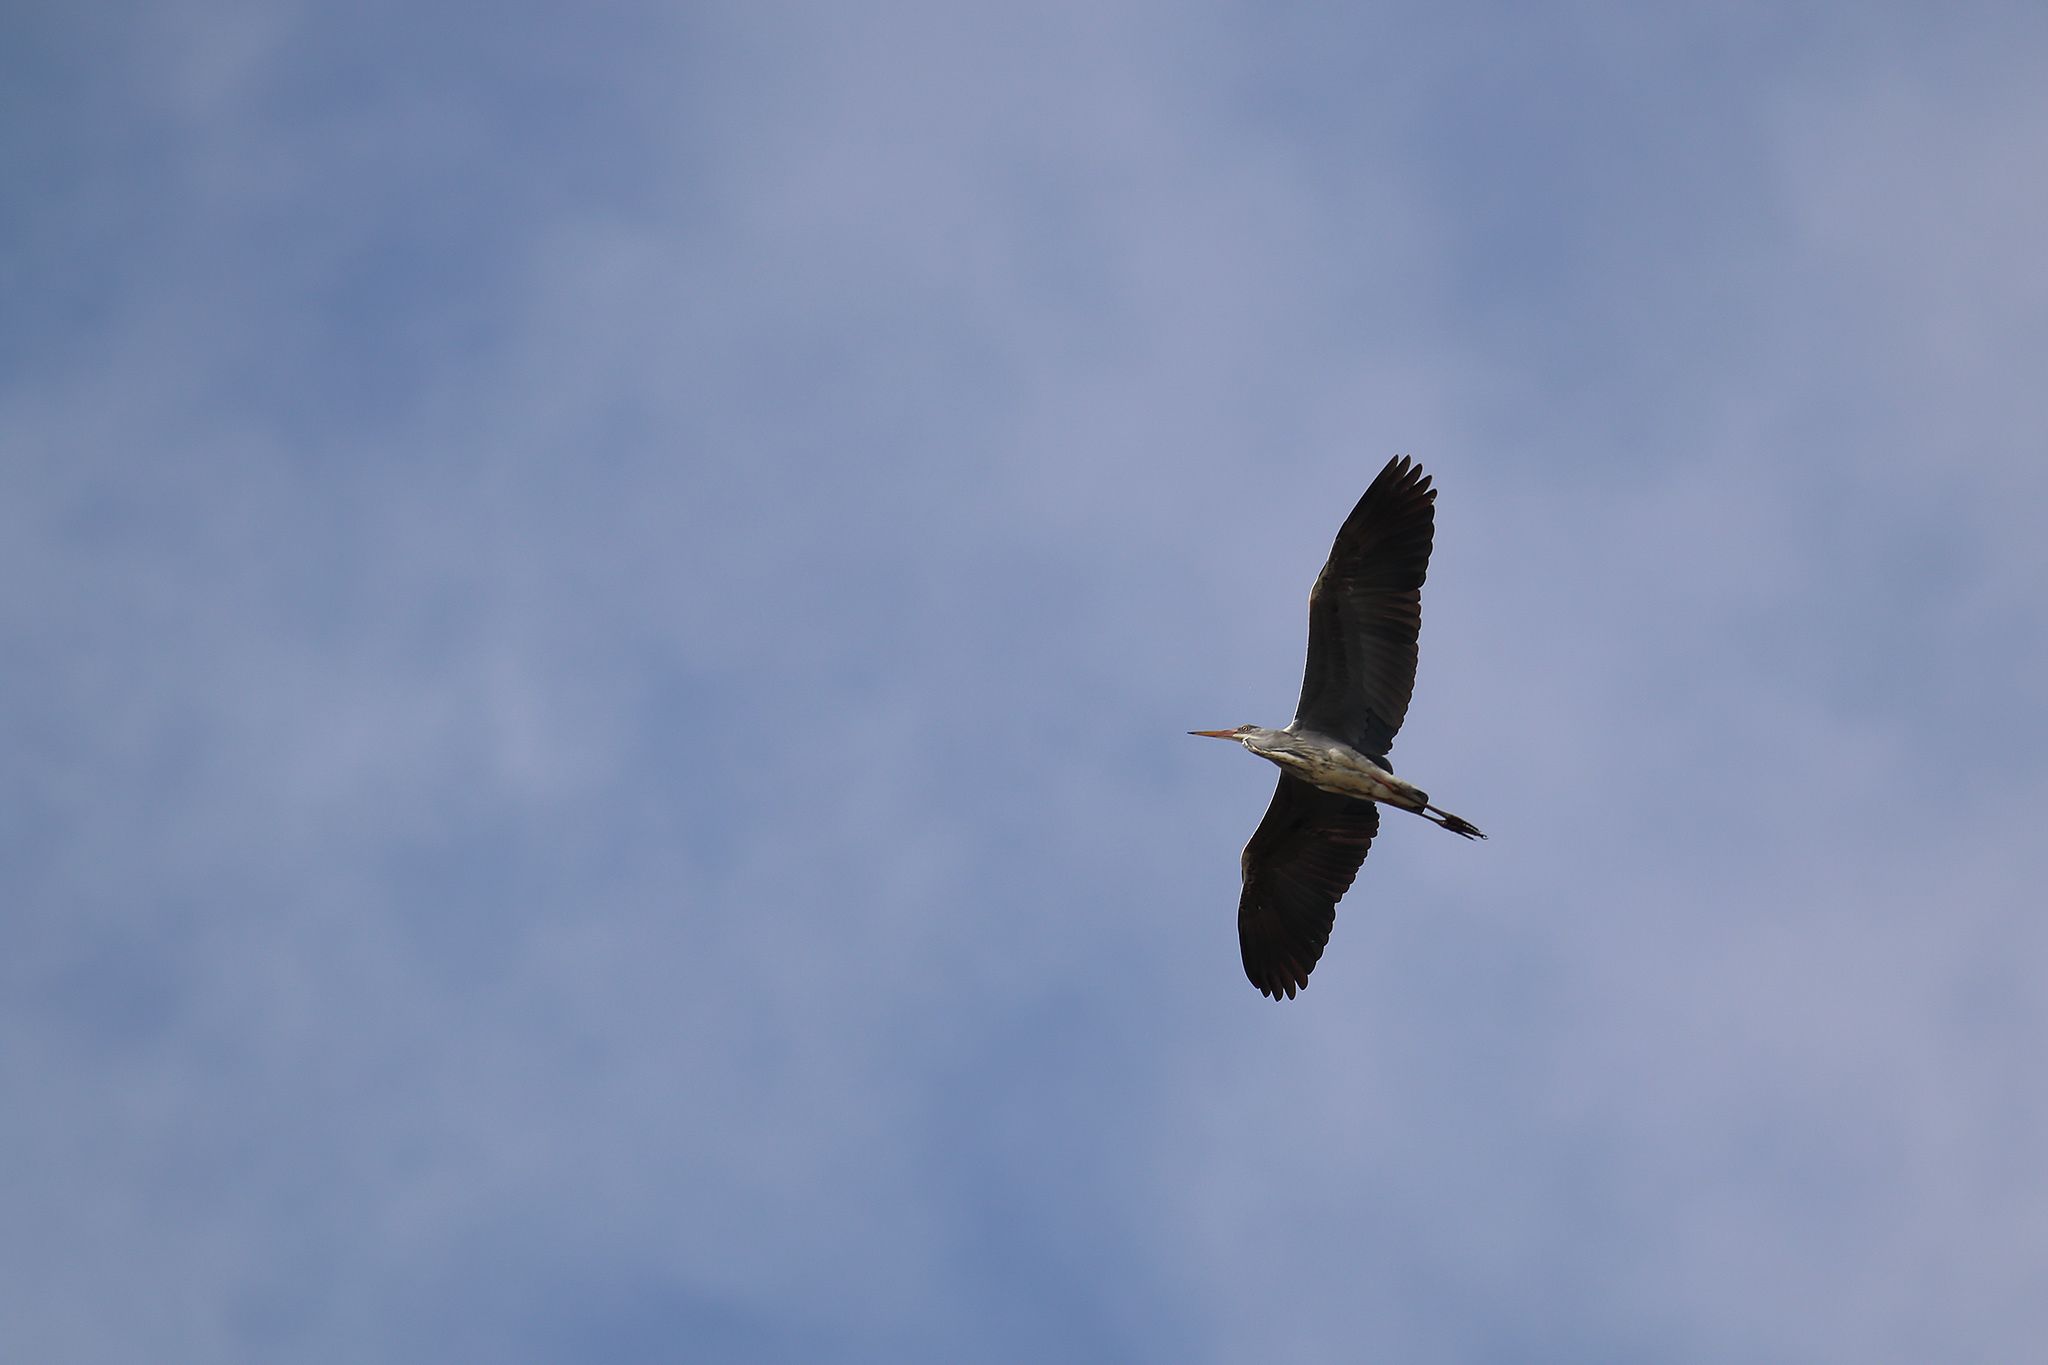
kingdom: Animalia
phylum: Chordata
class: Aves
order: Pelecaniformes
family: Ardeidae
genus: Ardea
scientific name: Ardea cinerea
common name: Grey heron
